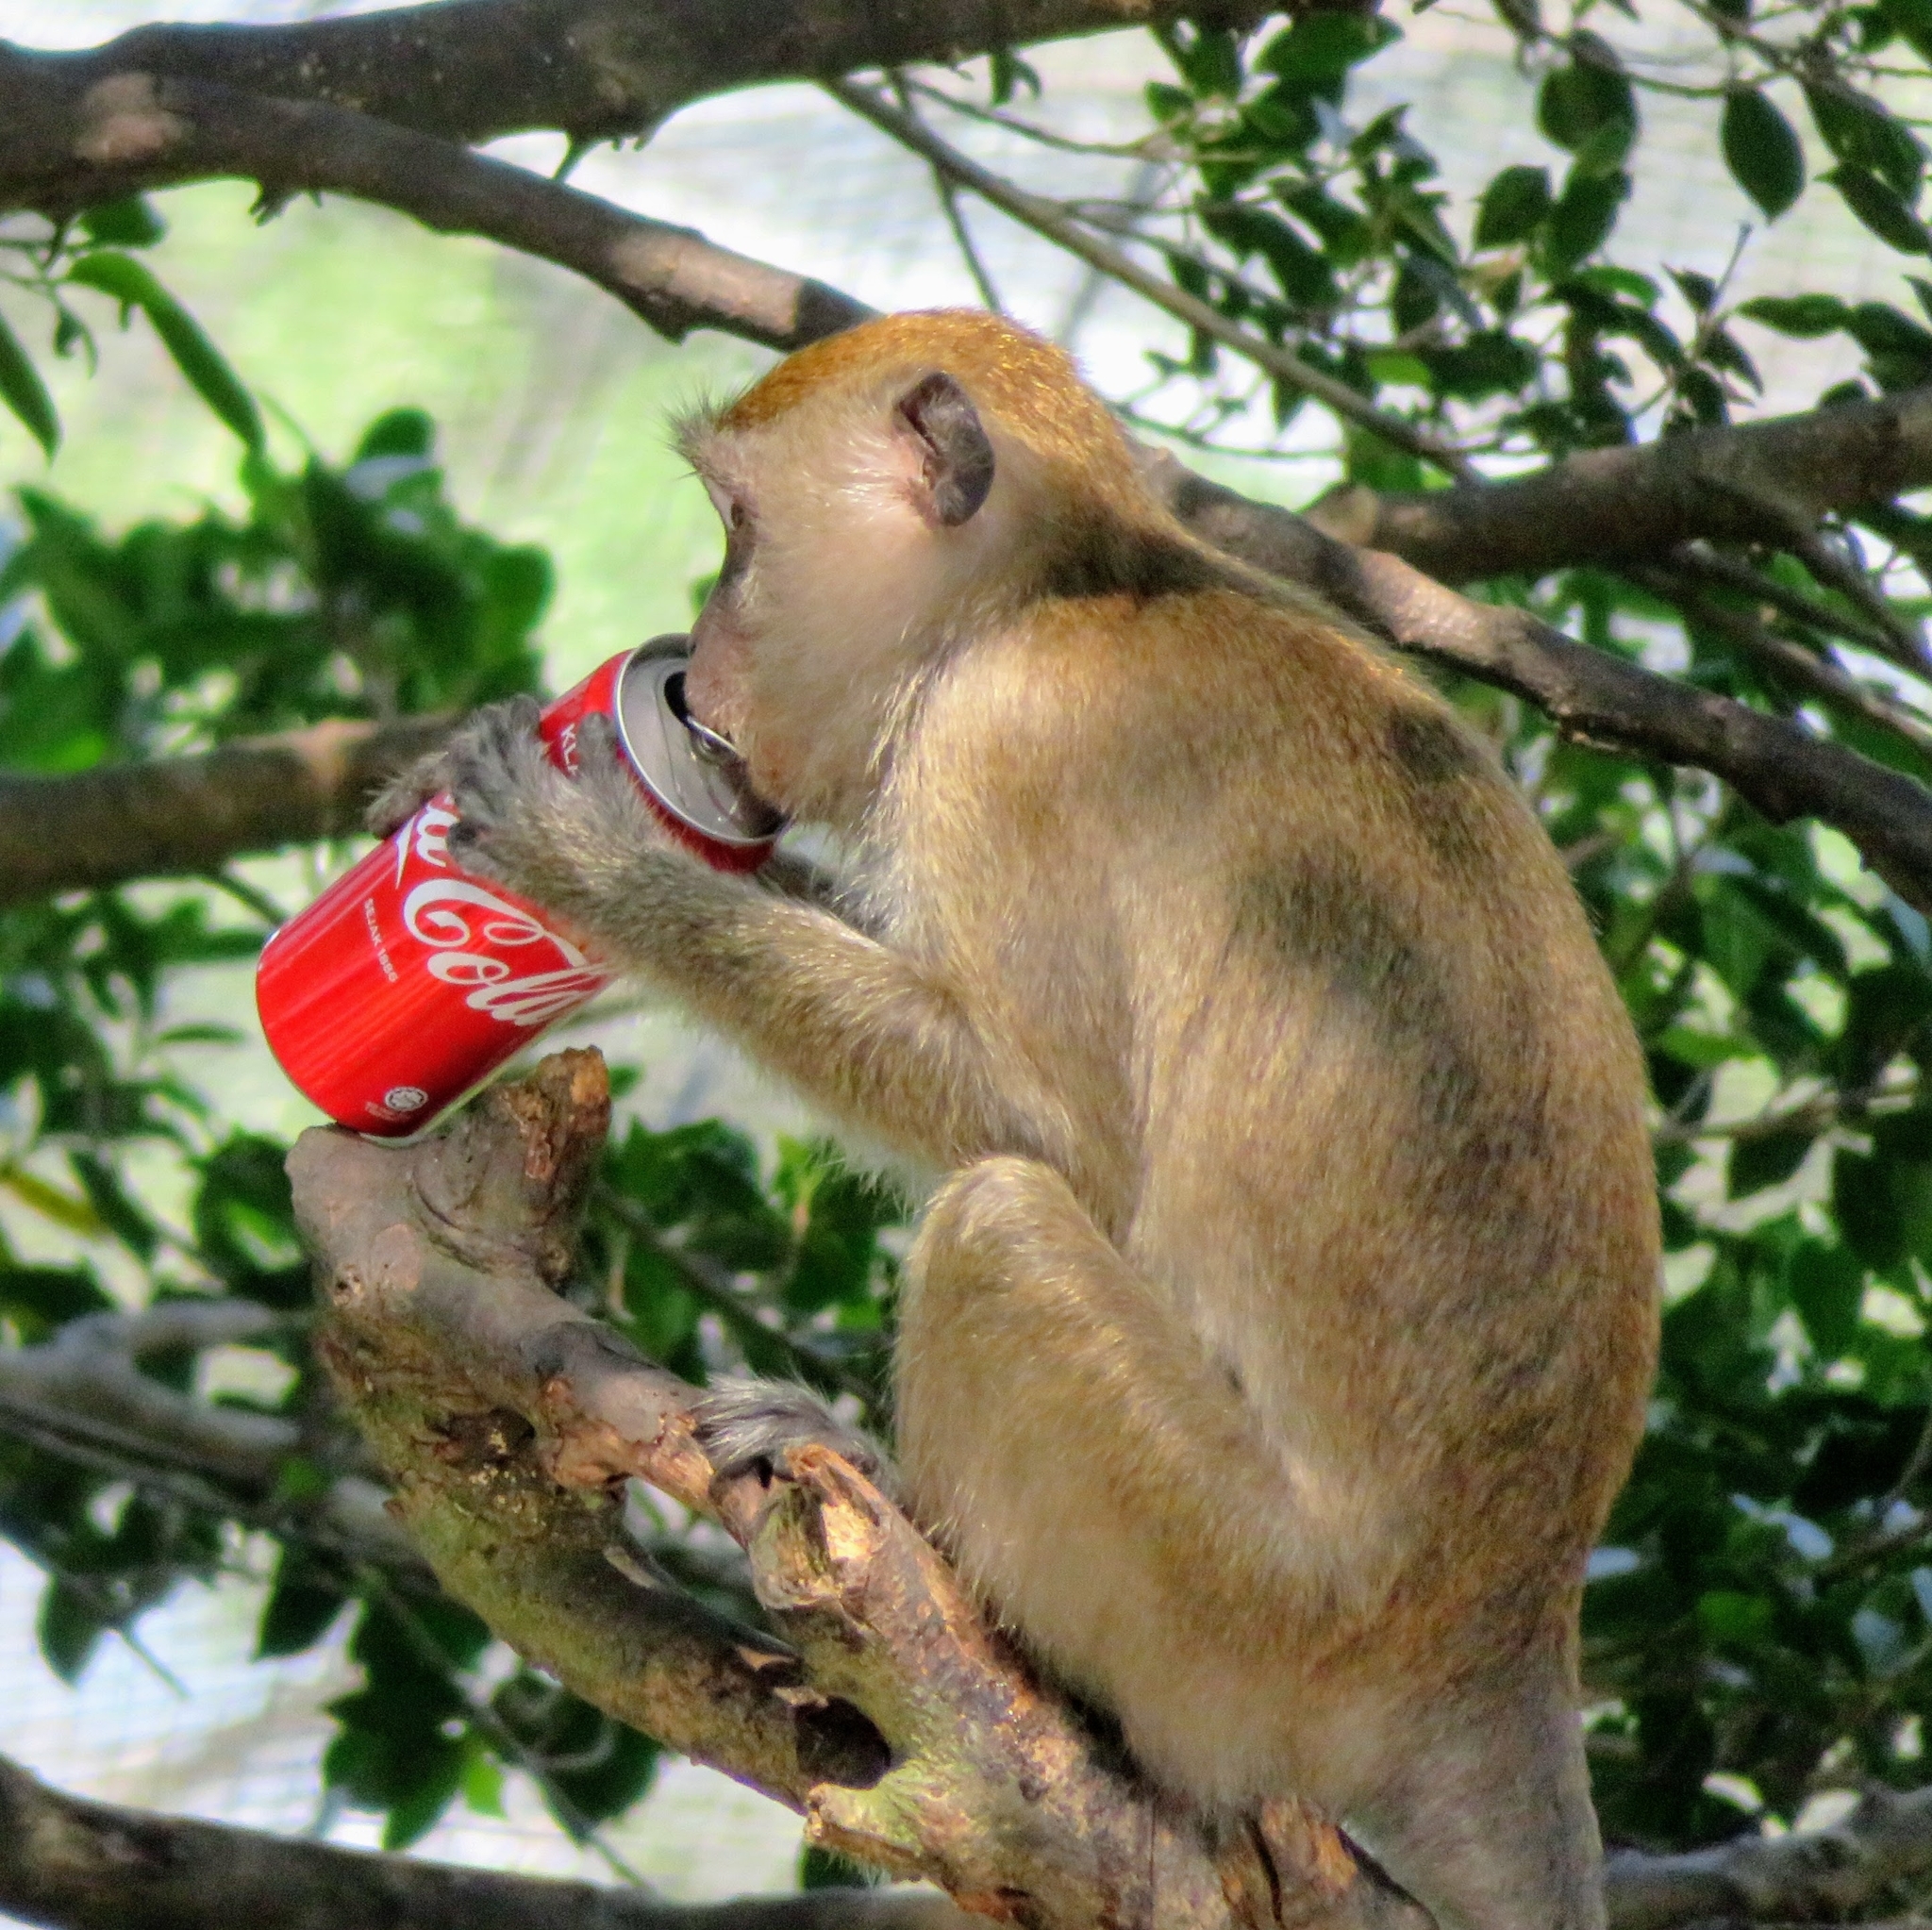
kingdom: Animalia
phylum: Chordata
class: Mammalia
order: Primates
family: Cercopithecidae
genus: Macaca
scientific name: Macaca fascicularis
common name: Crab-eating macaque
